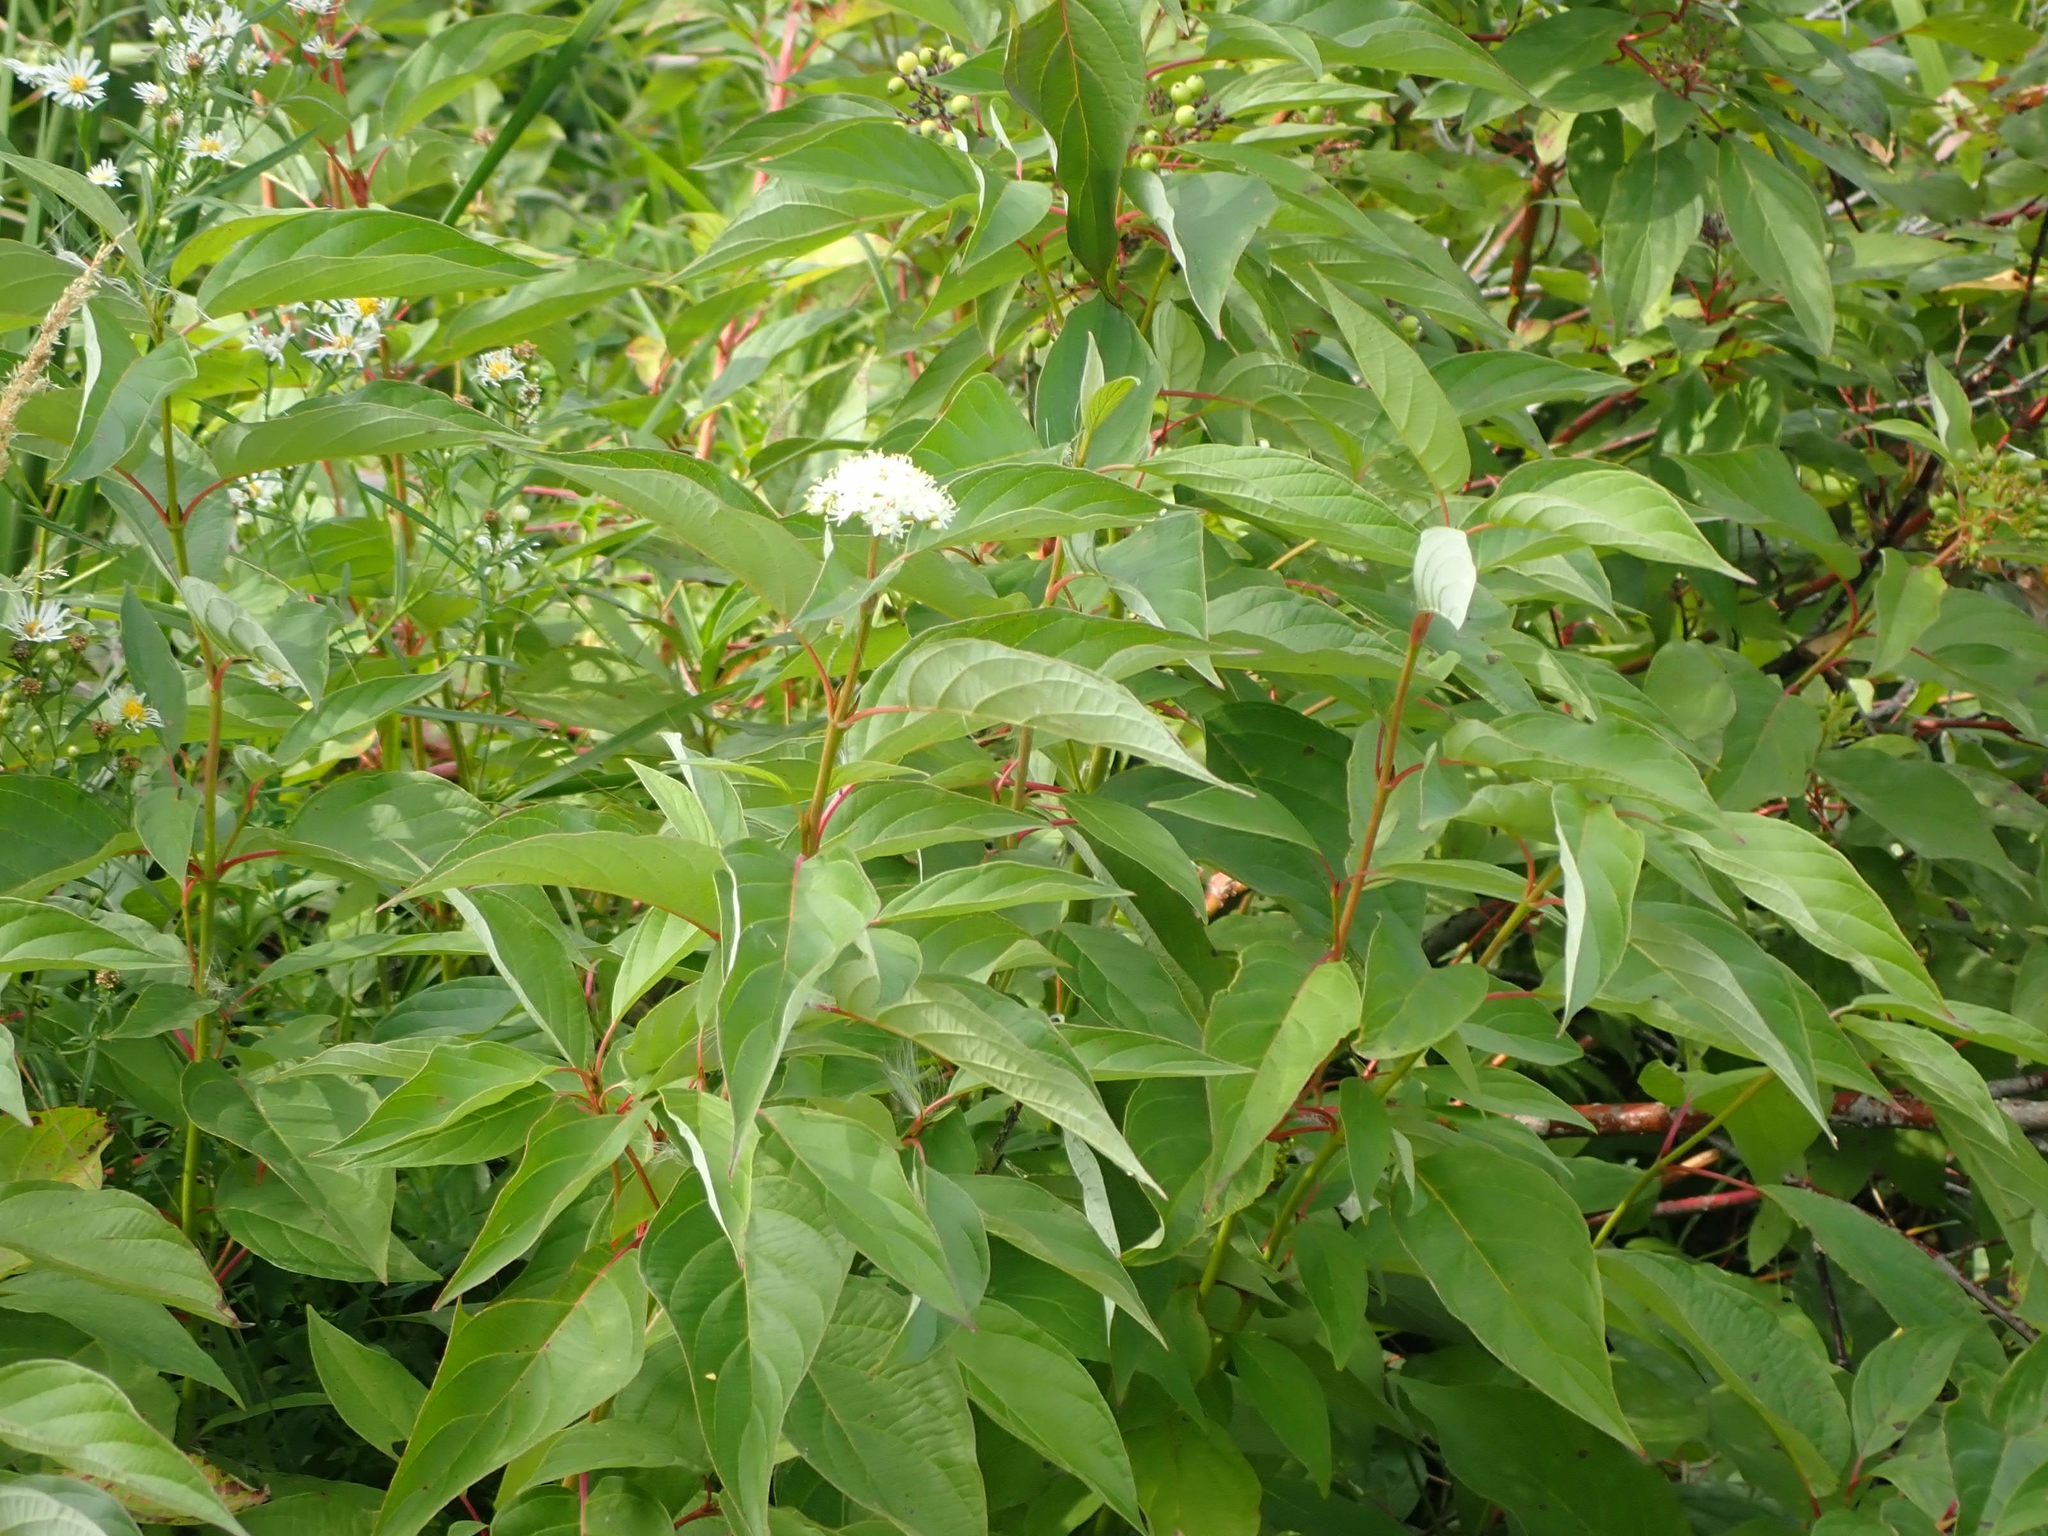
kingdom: Plantae
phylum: Tracheophyta
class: Magnoliopsida
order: Cornales
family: Cornaceae
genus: Cornus
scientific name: Cornus sericea
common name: Red-osier dogwood
